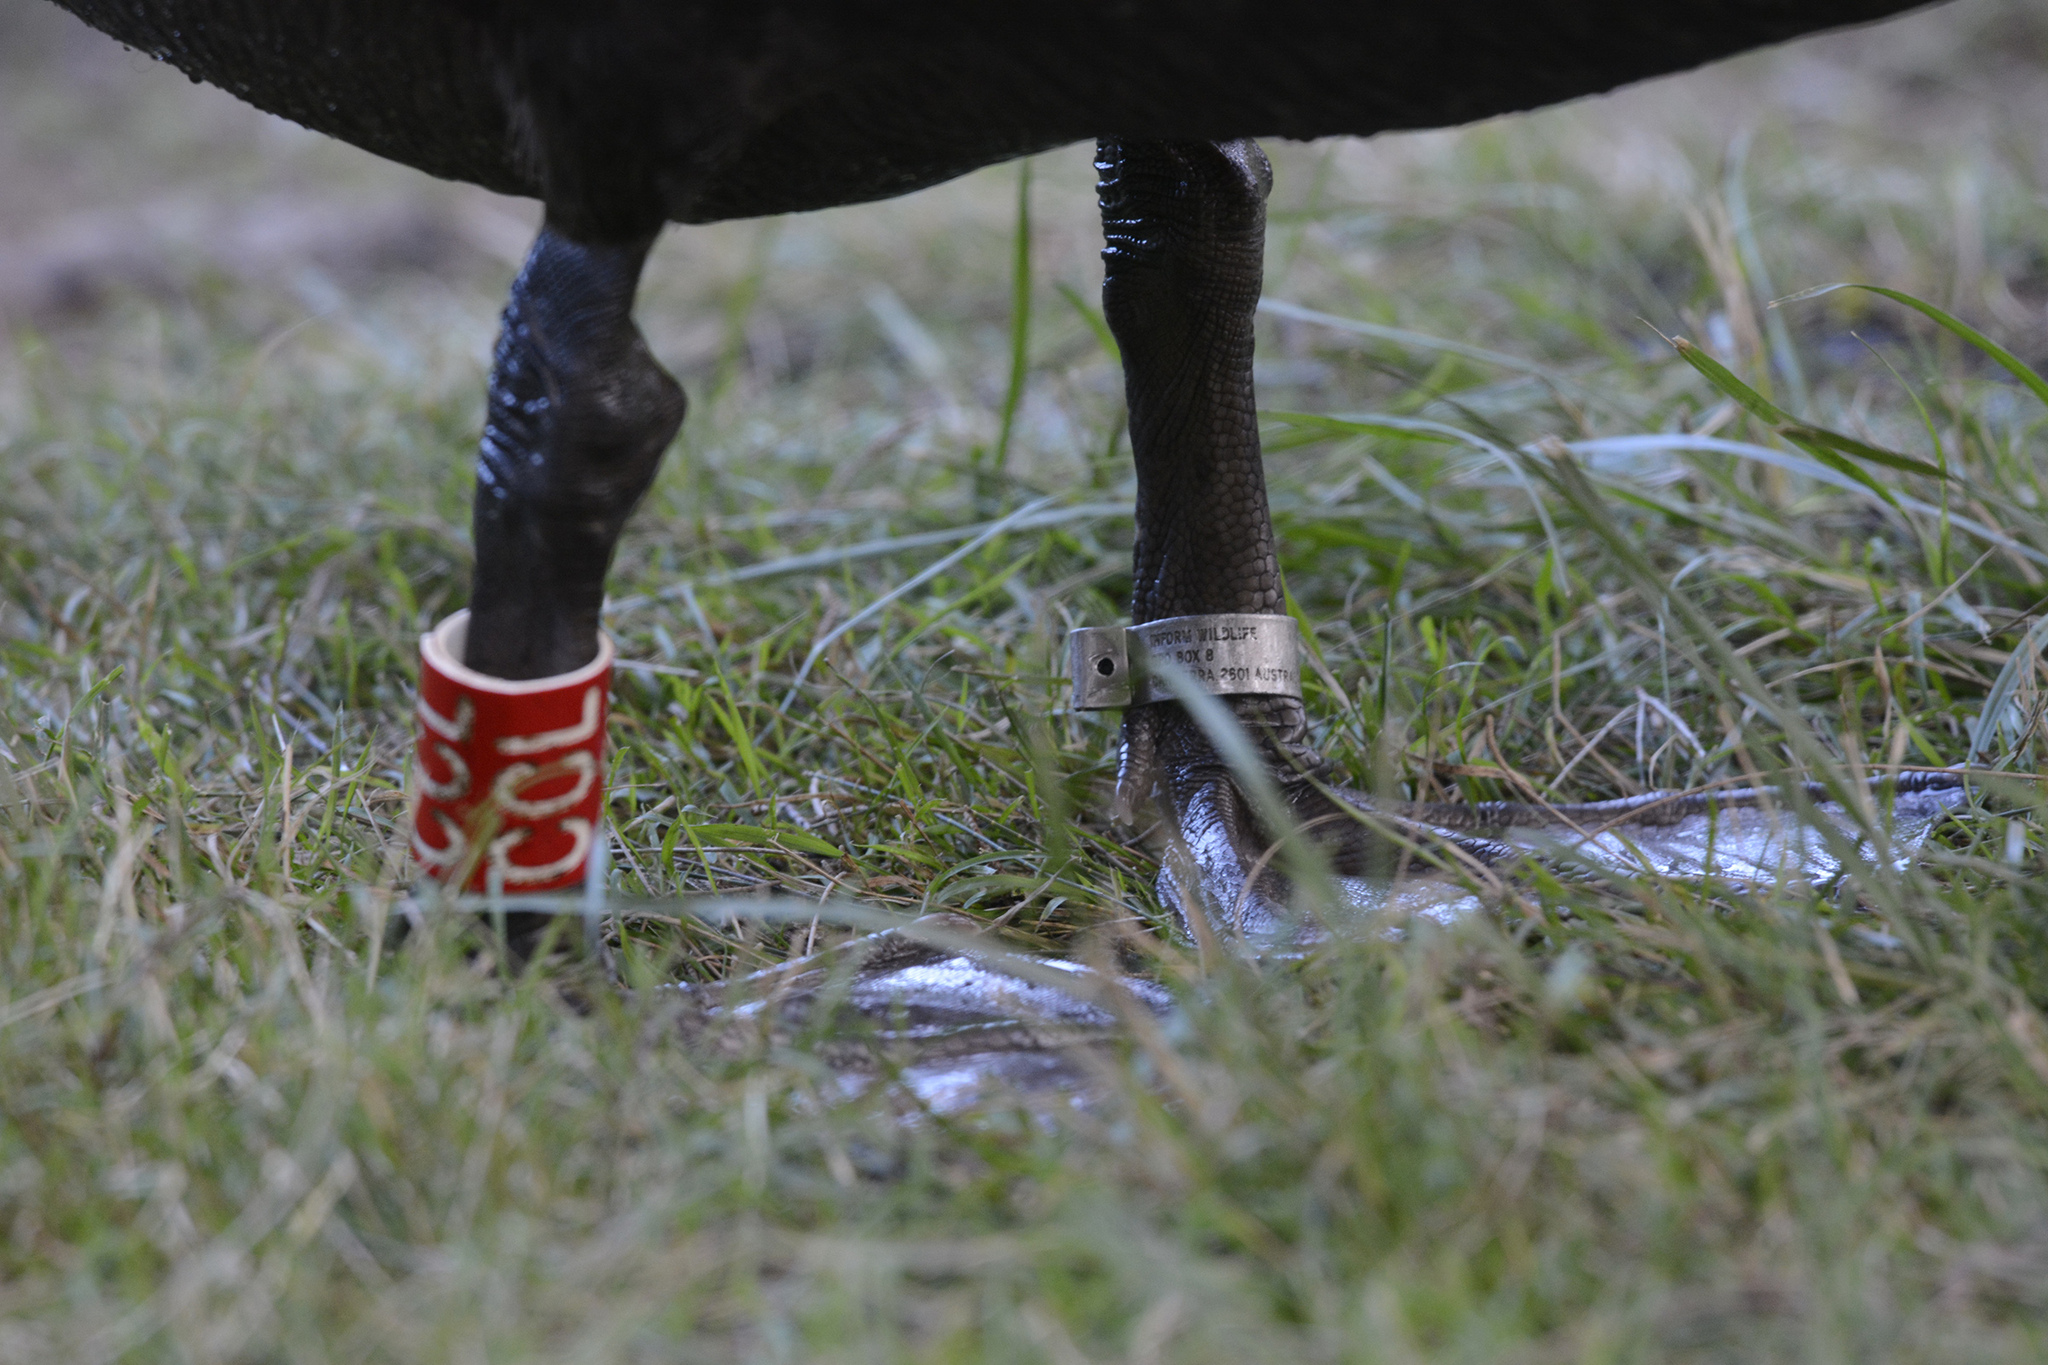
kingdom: Animalia
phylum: Chordata
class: Aves
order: Anseriformes
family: Anatidae
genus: Cygnus
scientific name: Cygnus atratus
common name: Black swan
